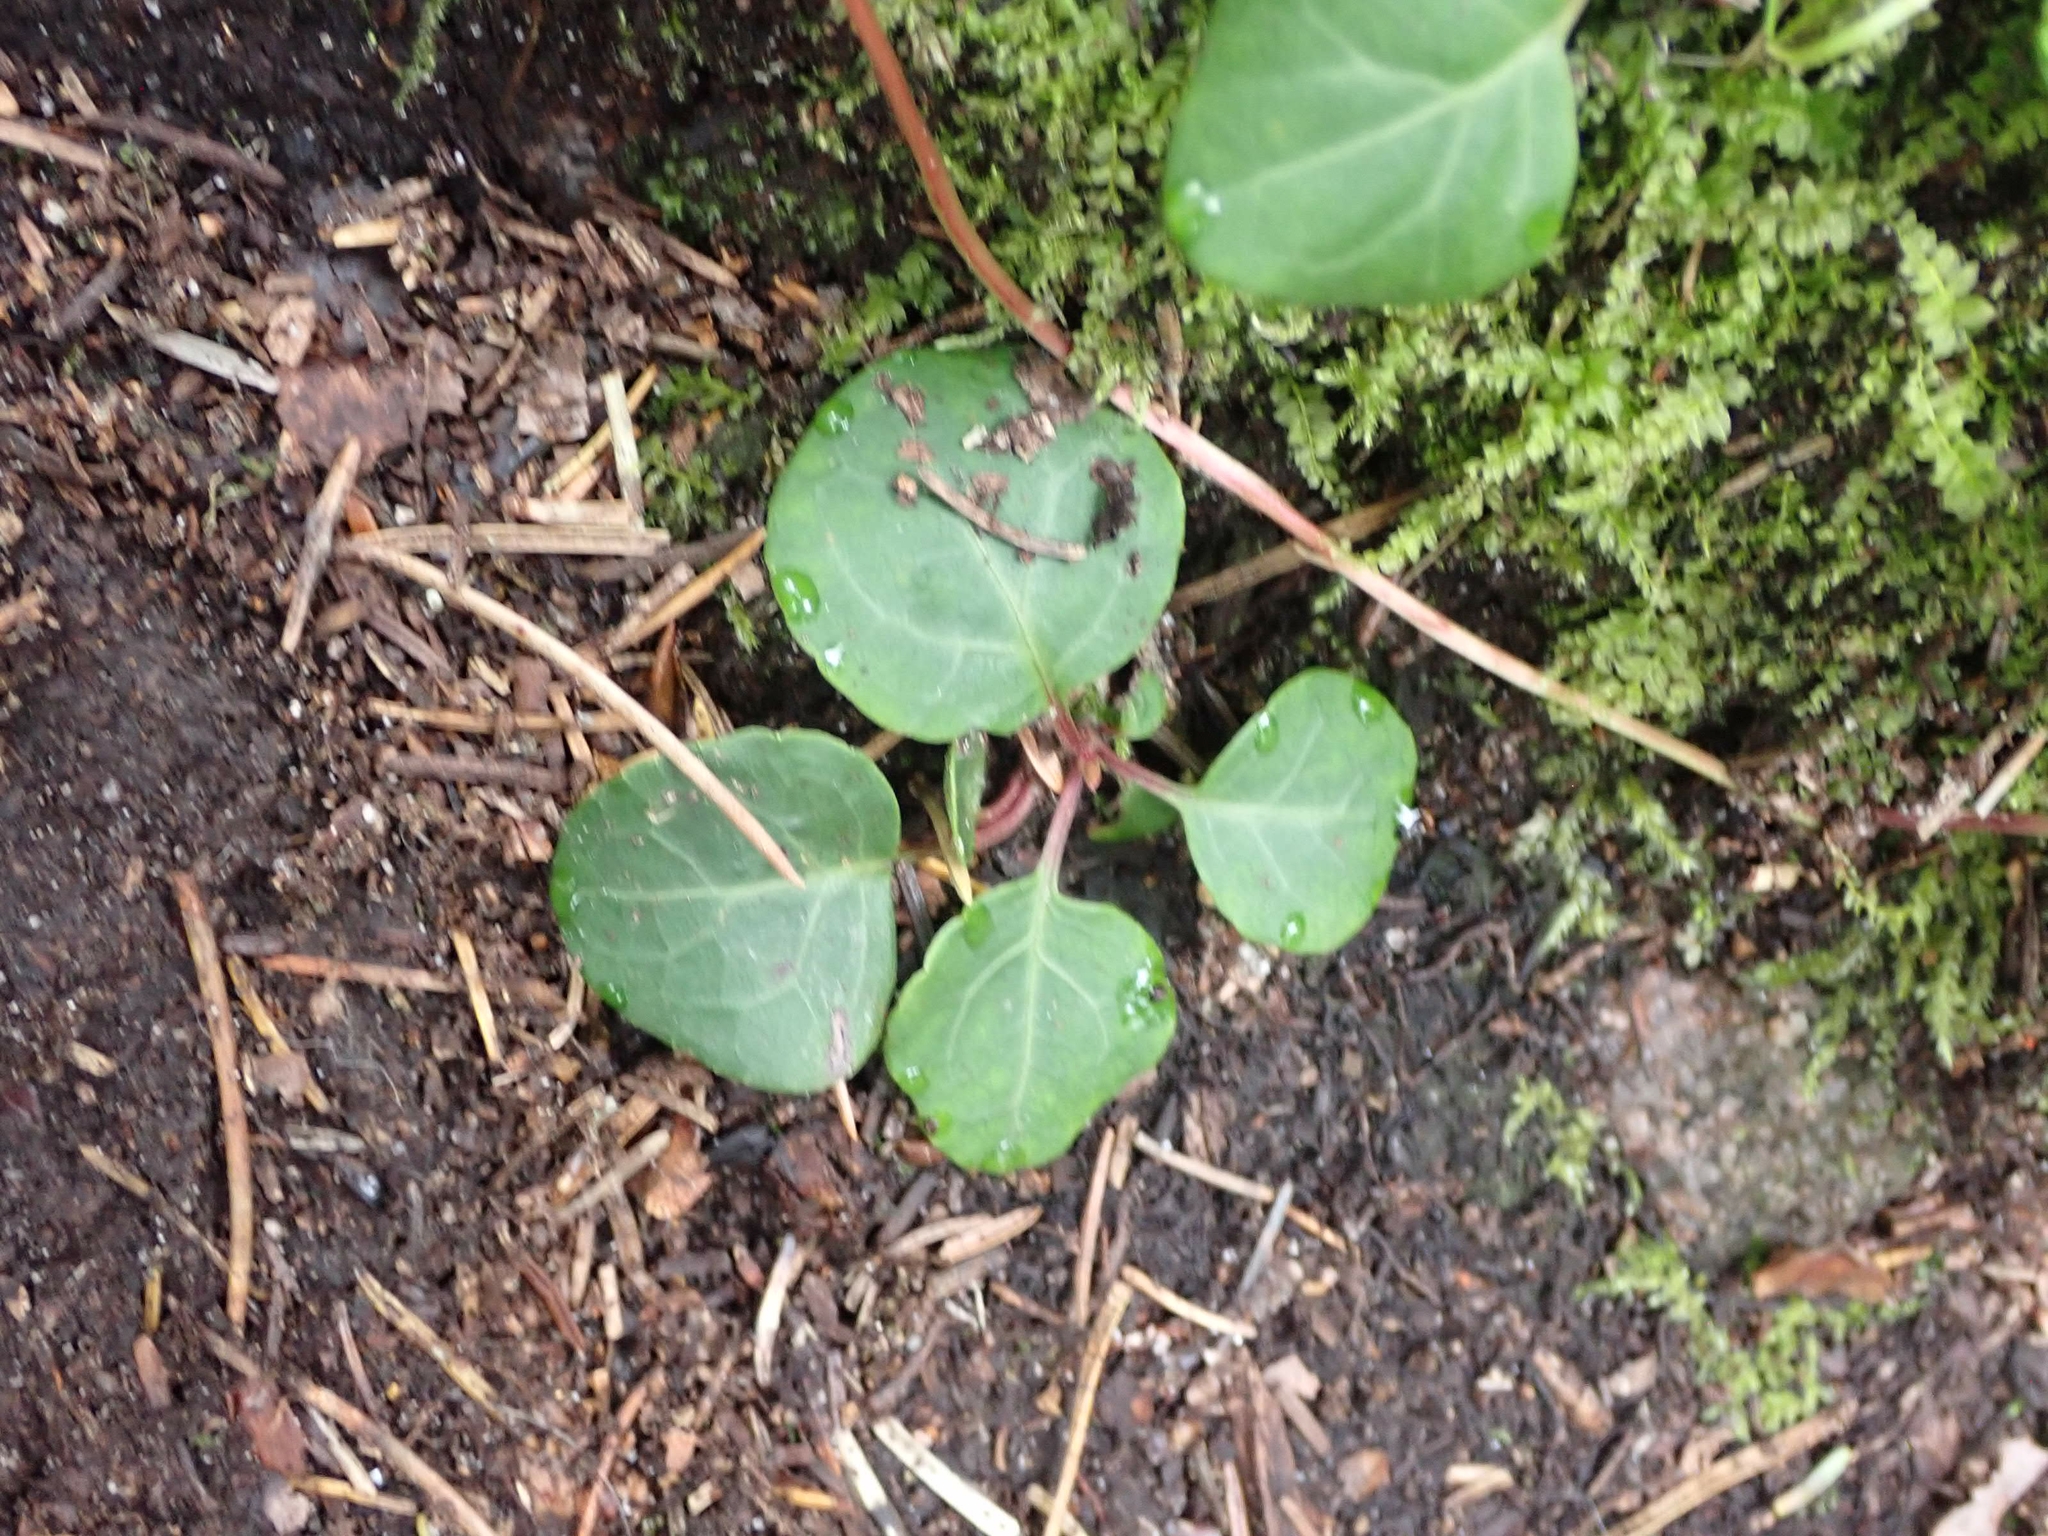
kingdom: Plantae
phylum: Tracheophyta
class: Magnoliopsida
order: Ericales
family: Ericaceae
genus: Pyrola
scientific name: Pyrola chlorantha
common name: Green wintergreen
